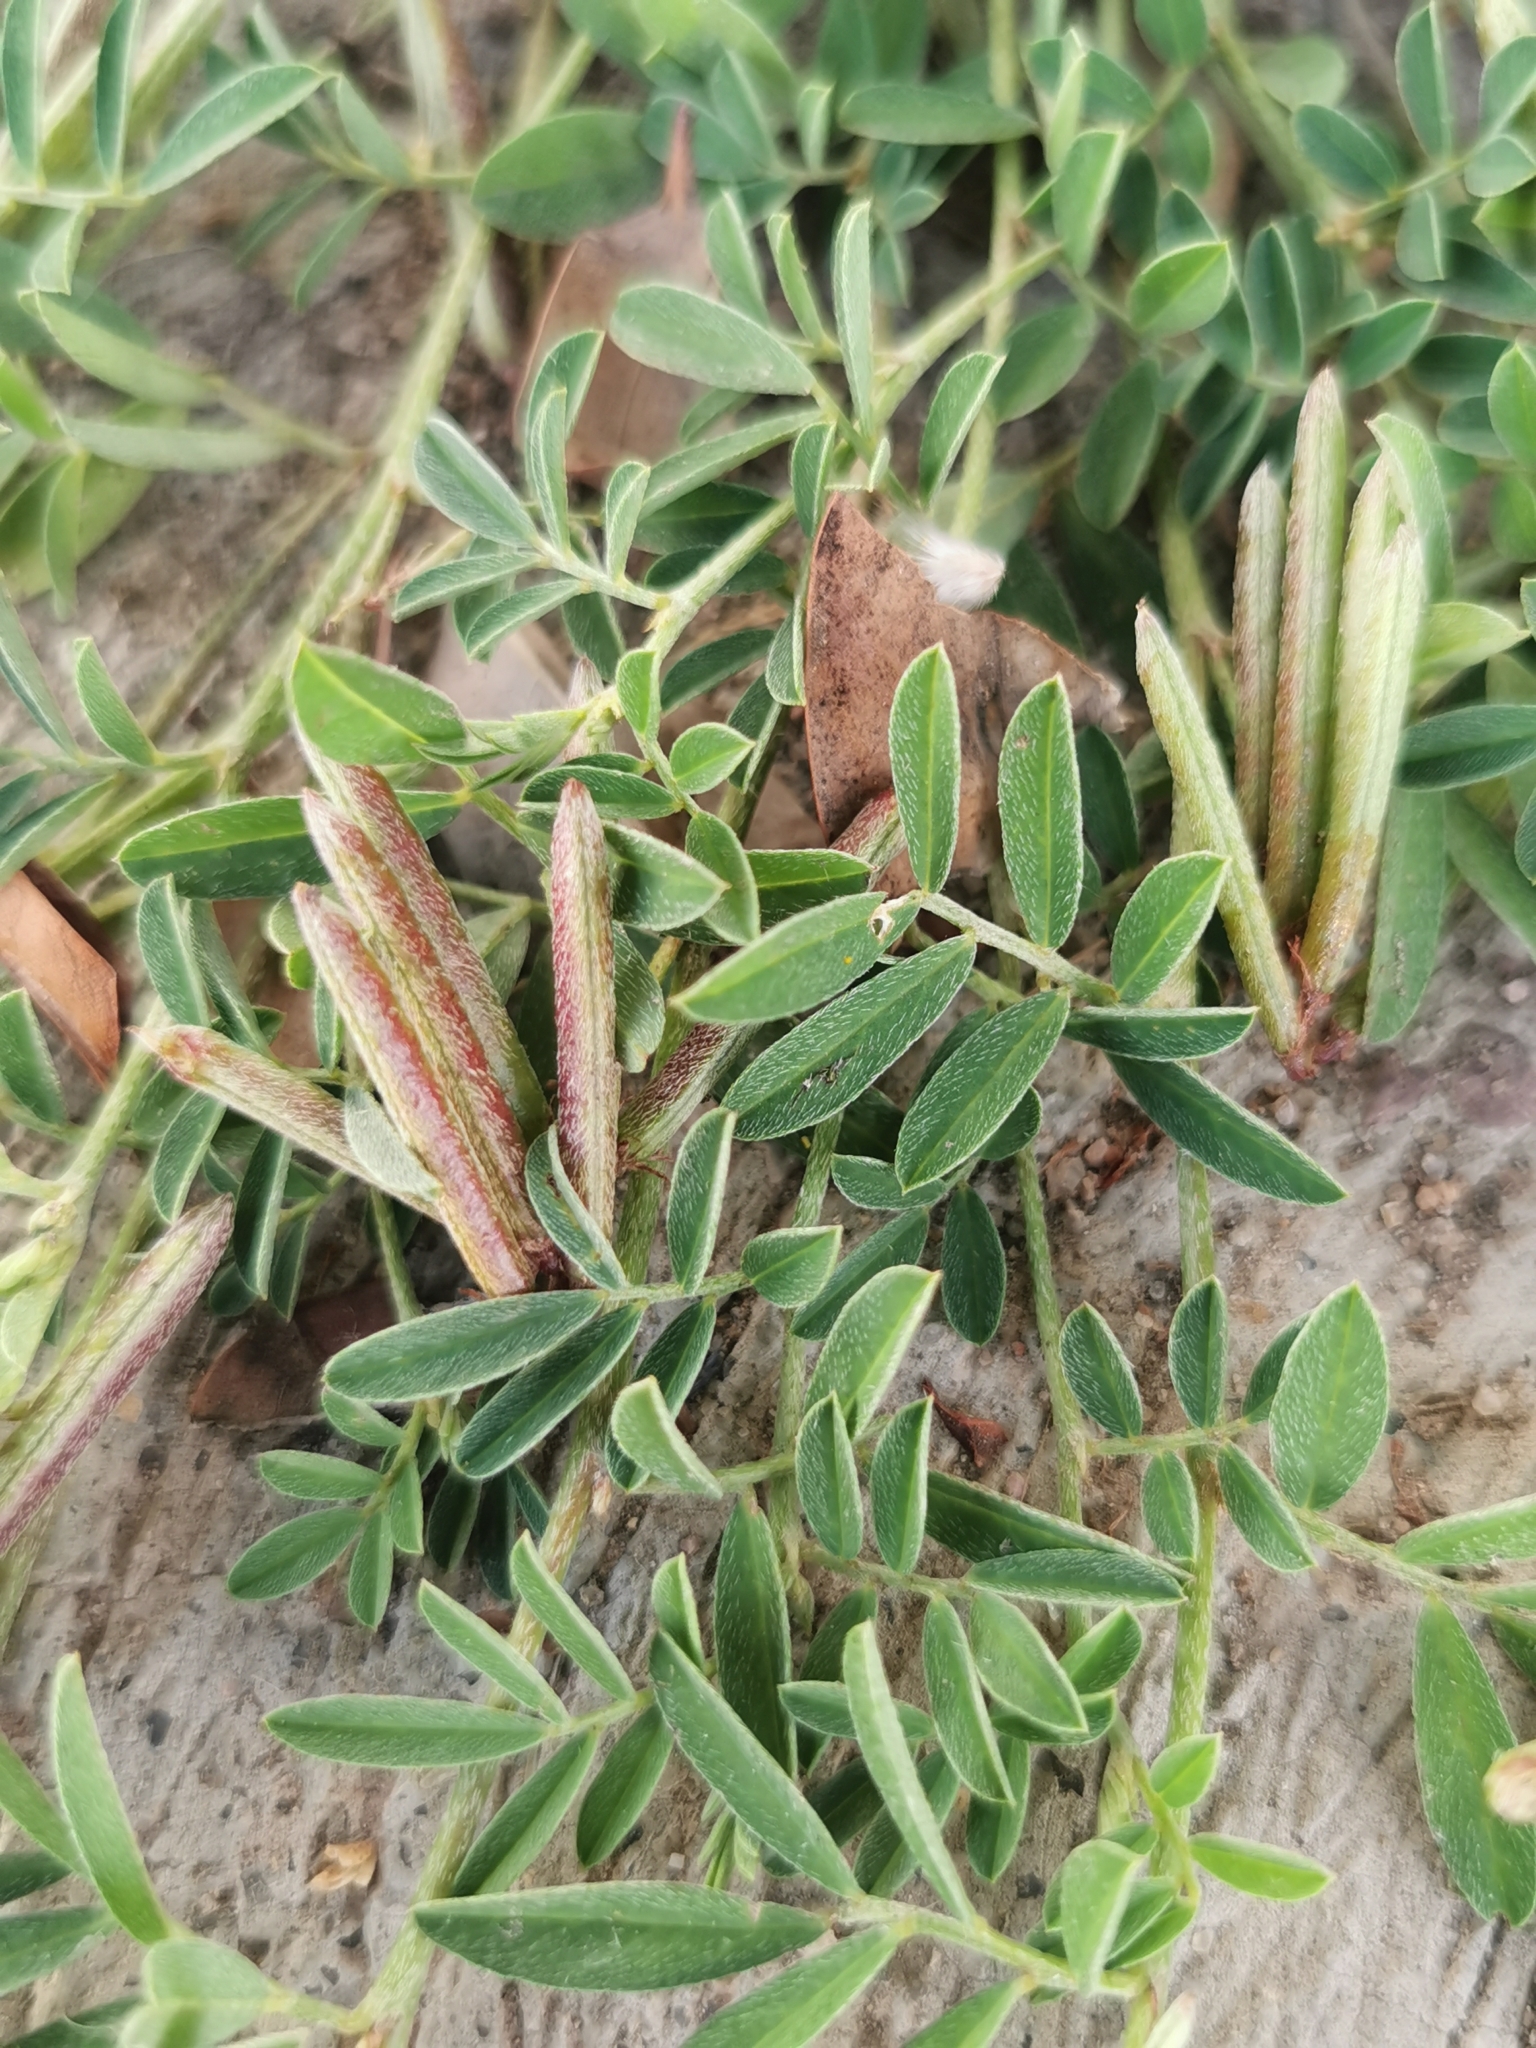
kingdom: Plantae
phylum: Tracheophyta
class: Magnoliopsida
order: Fabales
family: Fabaceae
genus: Indigofera
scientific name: Indigofera miniata
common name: Coast indigo
